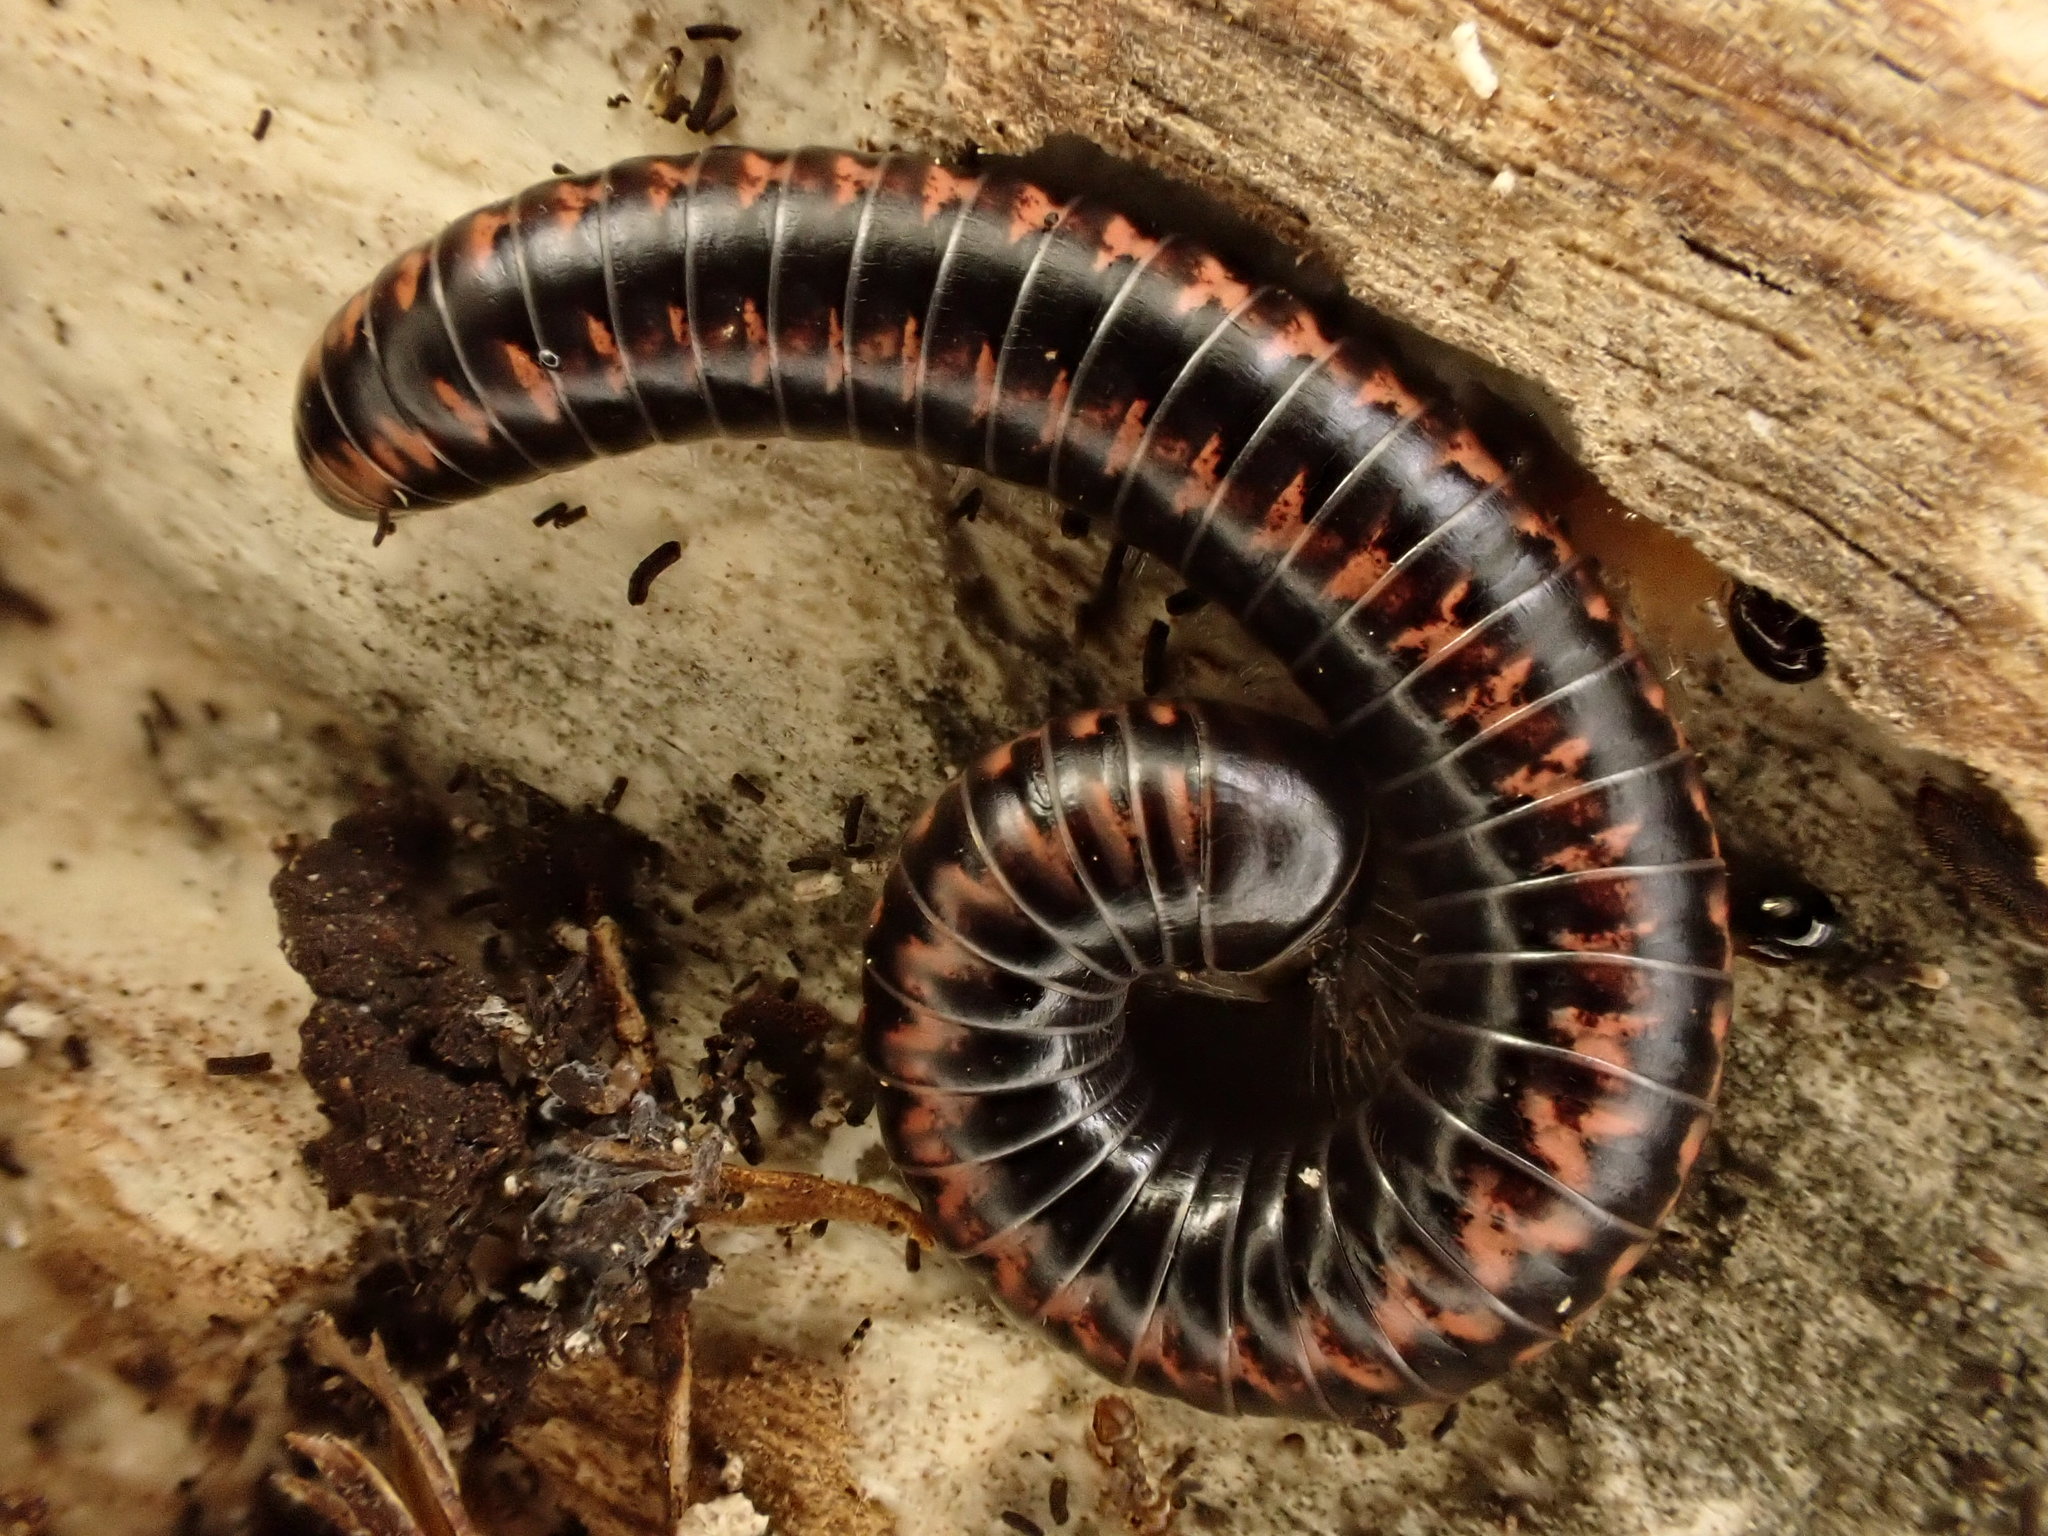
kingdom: Animalia
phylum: Arthropoda
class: Diplopoda
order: Spirobolida
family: Spirobolellidae
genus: Spirobolellus
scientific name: Spirobolellus antipodarum
